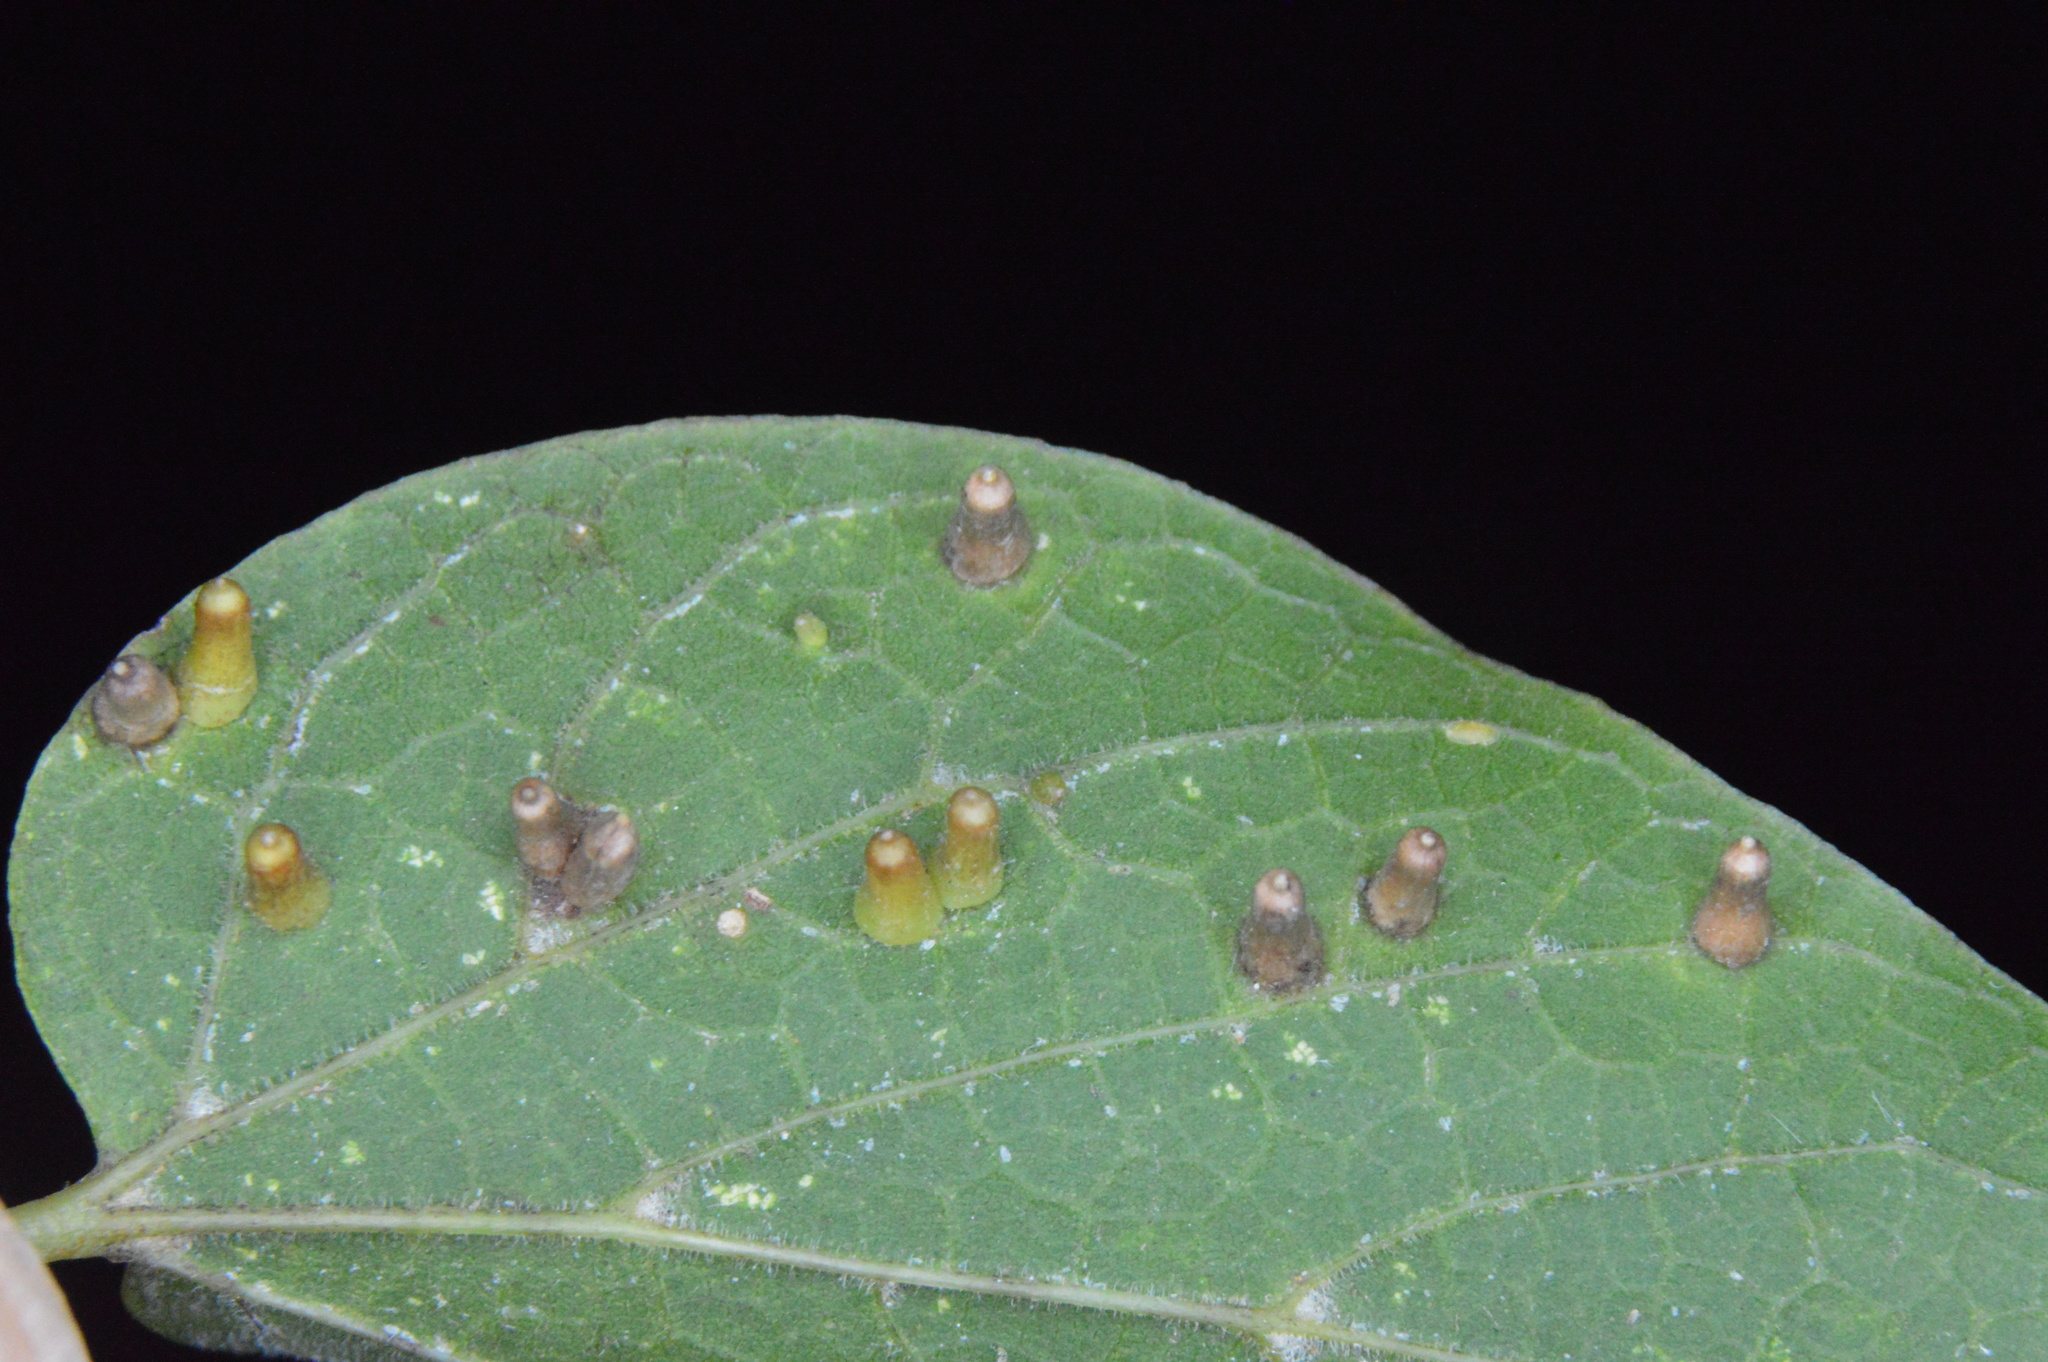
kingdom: Animalia
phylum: Arthropoda
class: Insecta
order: Diptera
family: Cecidomyiidae
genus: Celticecis
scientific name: Celticecis aciculata
